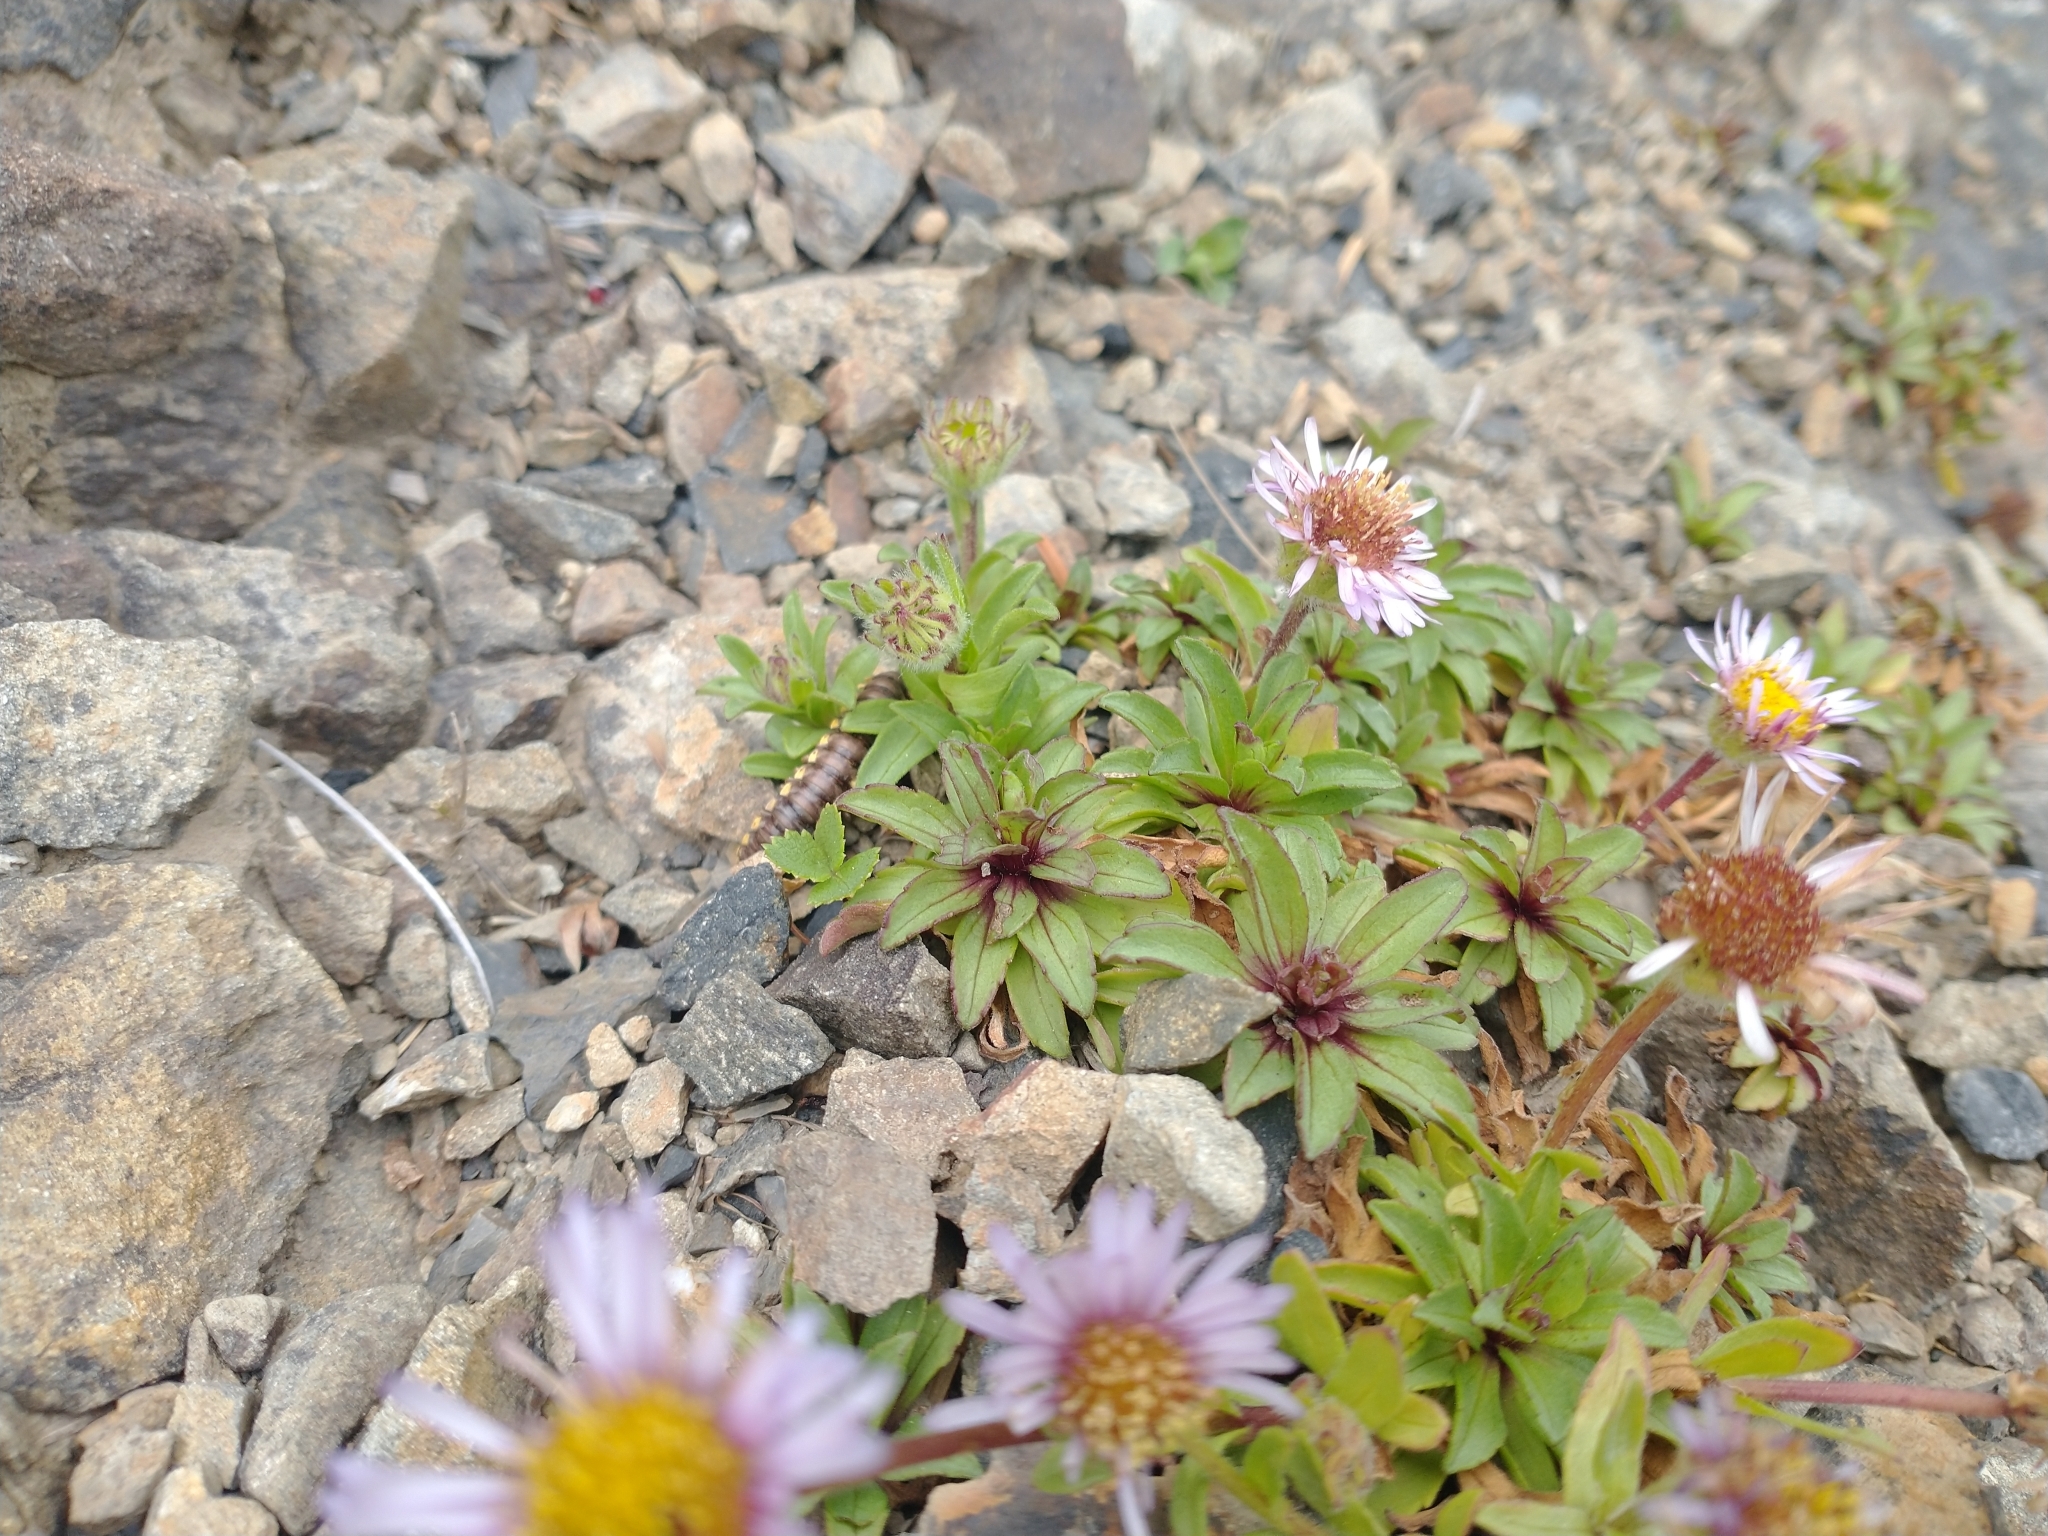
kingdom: Plantae
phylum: Tracheophyta
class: Magnoliopsida
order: Asterales
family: Asteraceae
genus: Erigeron
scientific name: Erigeron glaucus
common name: Seaside daisy
